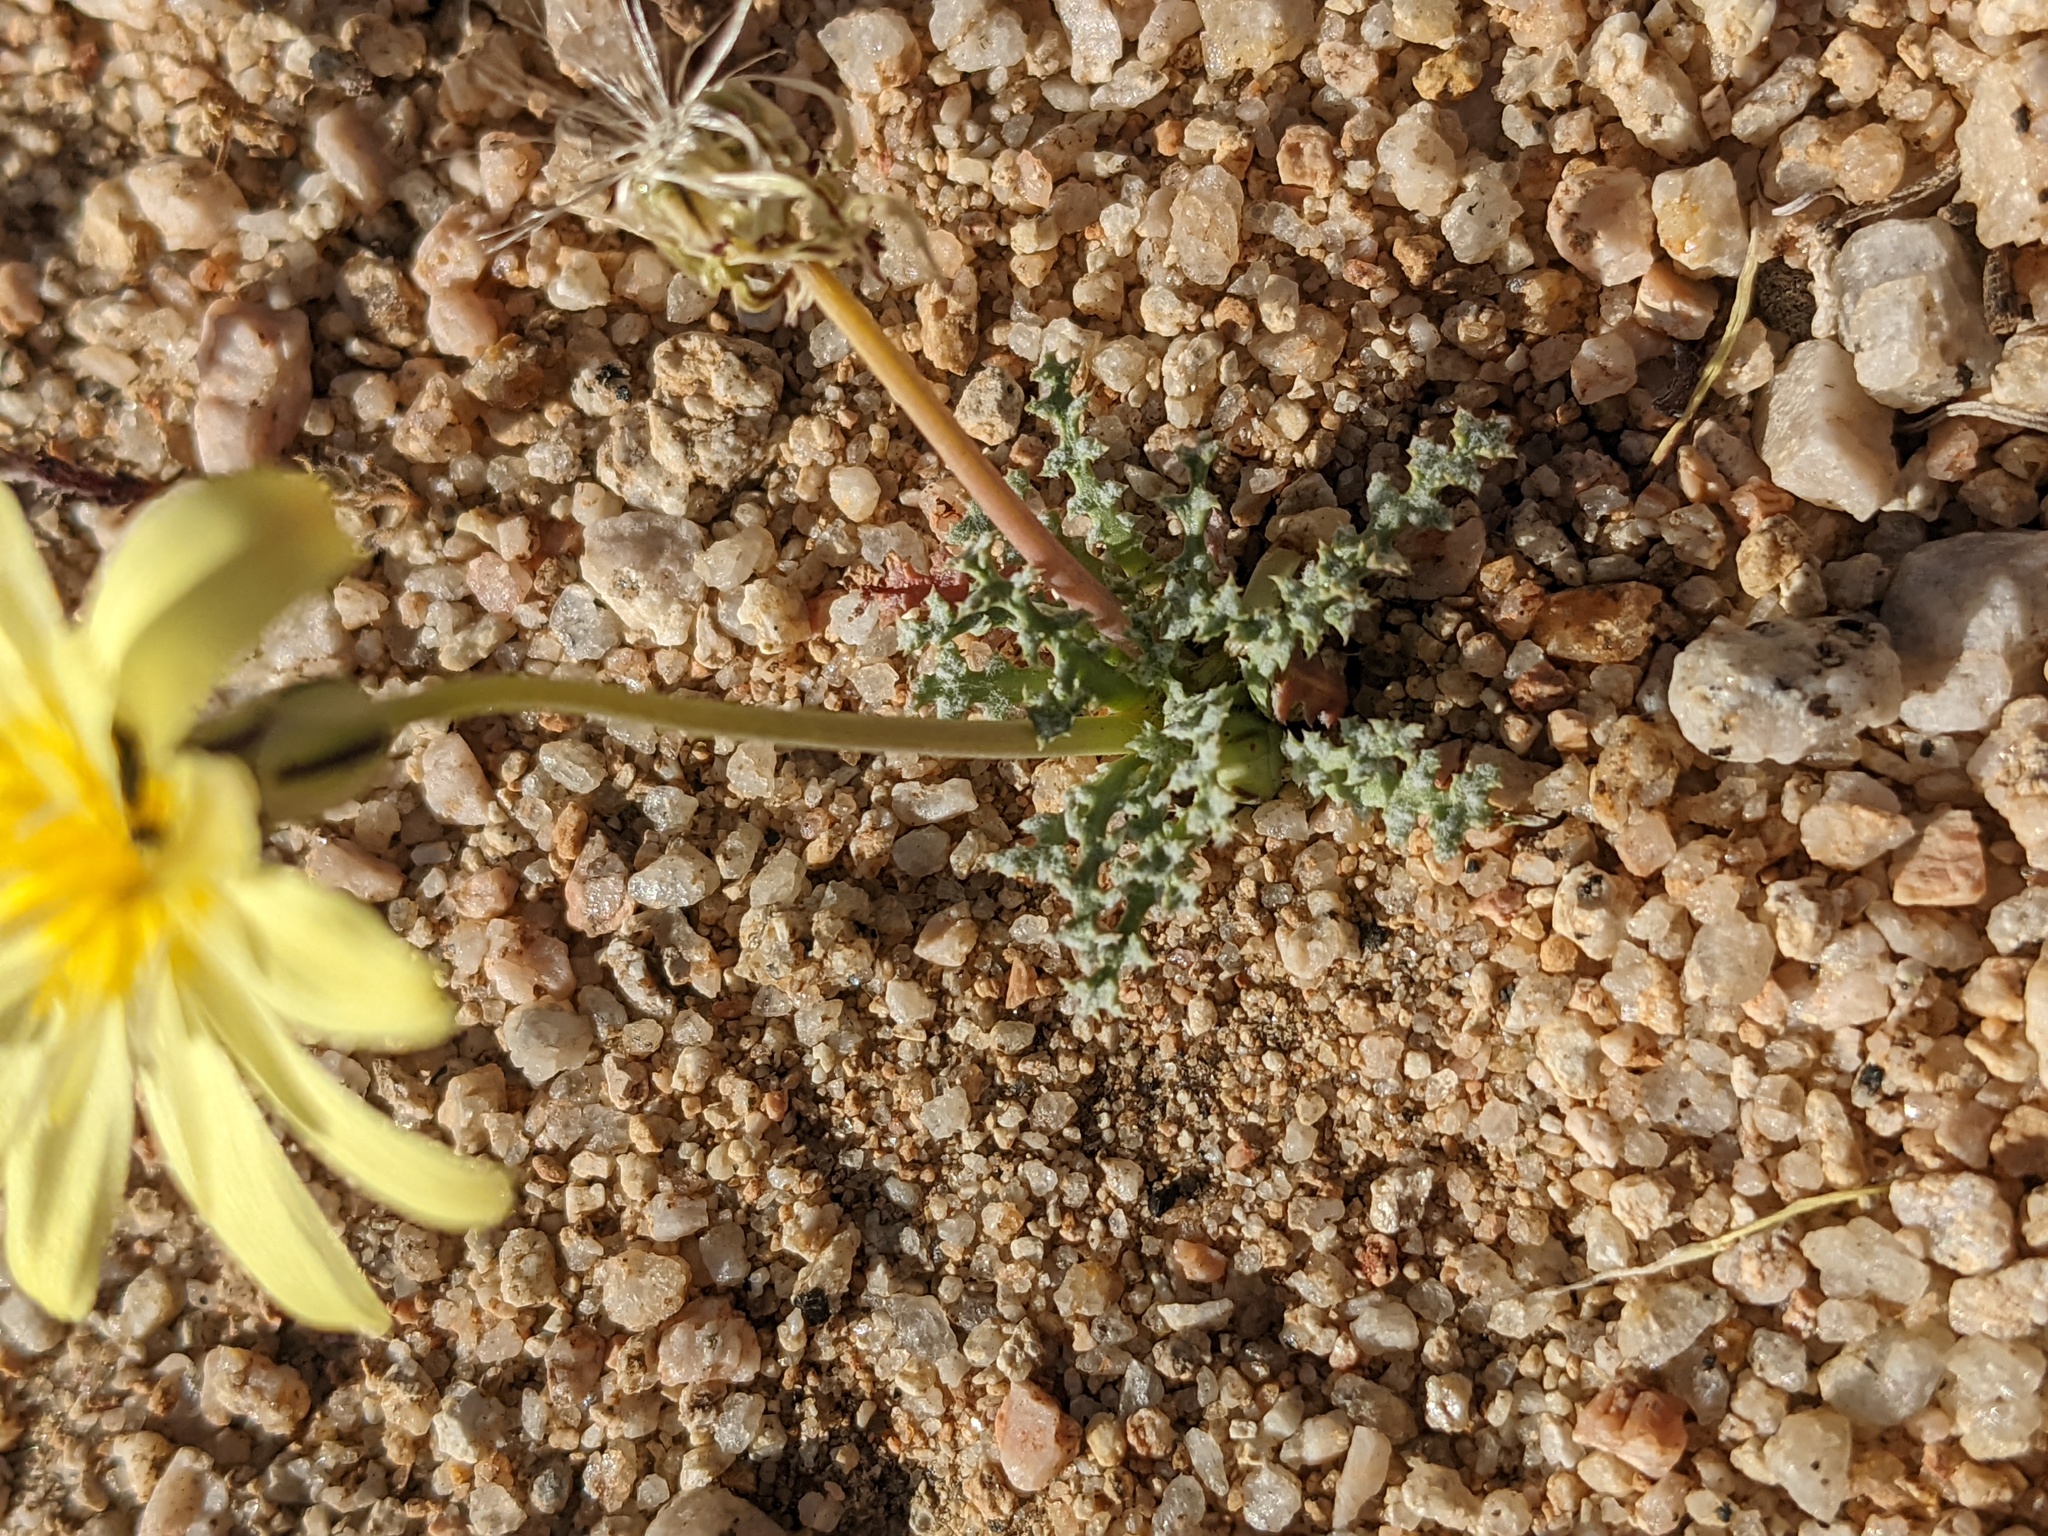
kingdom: Plantae
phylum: Tracheophyta
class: Magnoliopsida
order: Asterales
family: Asteraceae
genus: Anisocoma
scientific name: Anisocoma acaulis
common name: Scalebud
